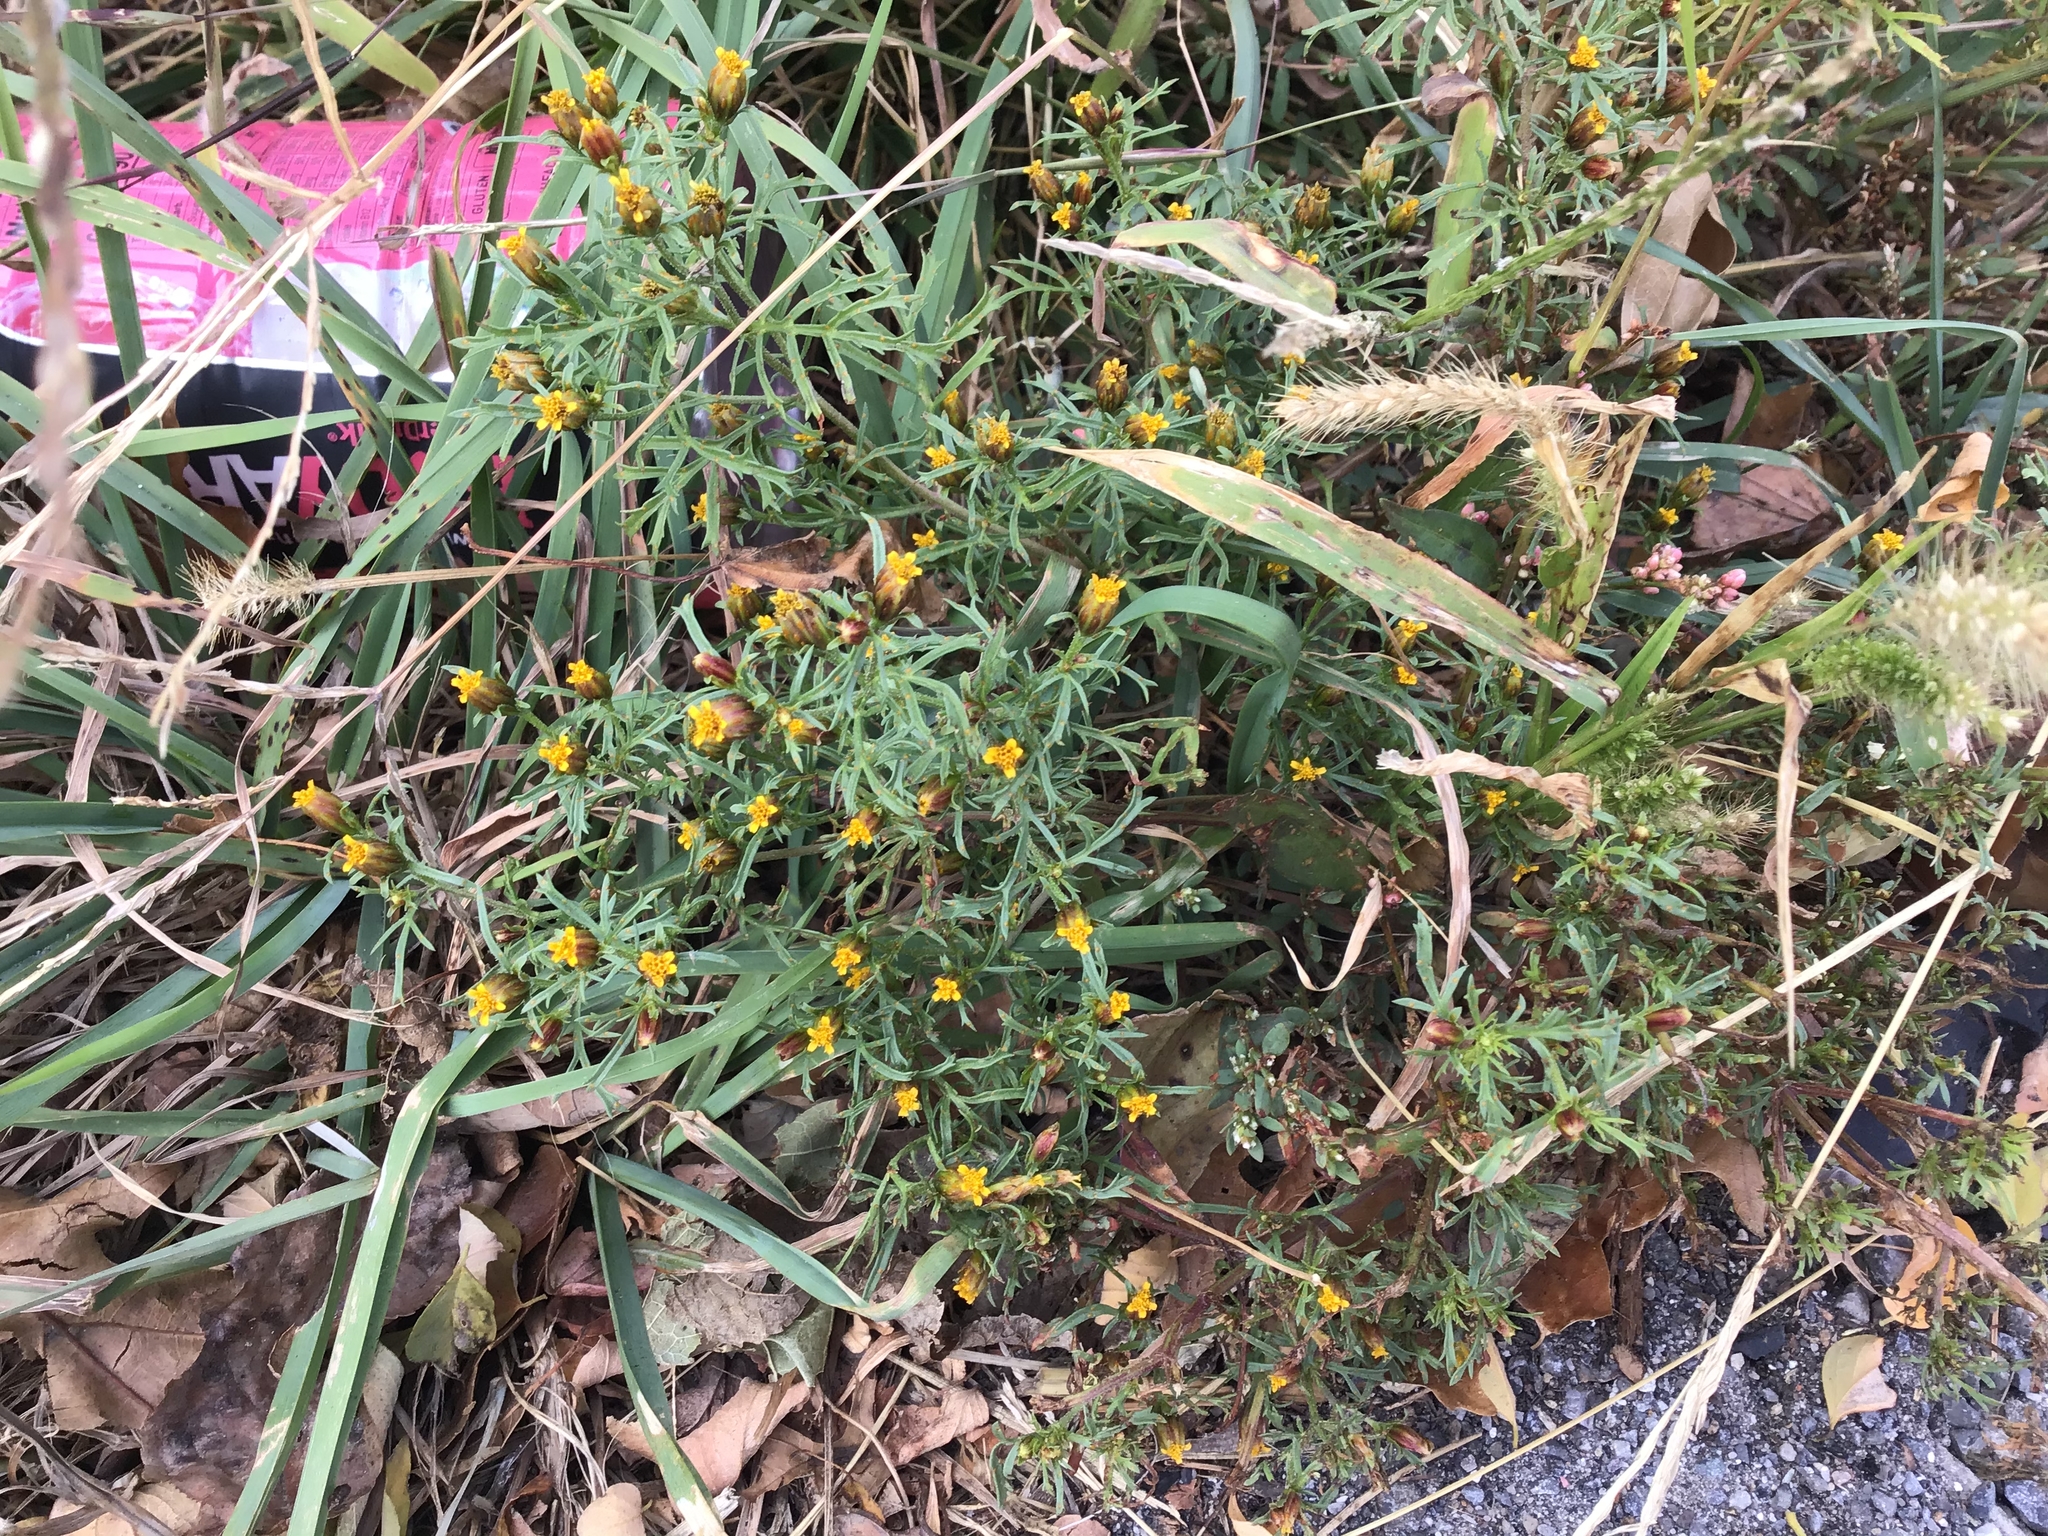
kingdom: Plantae
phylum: Tracheophyta
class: Magnoliopsida
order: Asterales
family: Asteraceae
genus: Dyssodia
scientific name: Dyssodia papposa
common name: Dogweed
